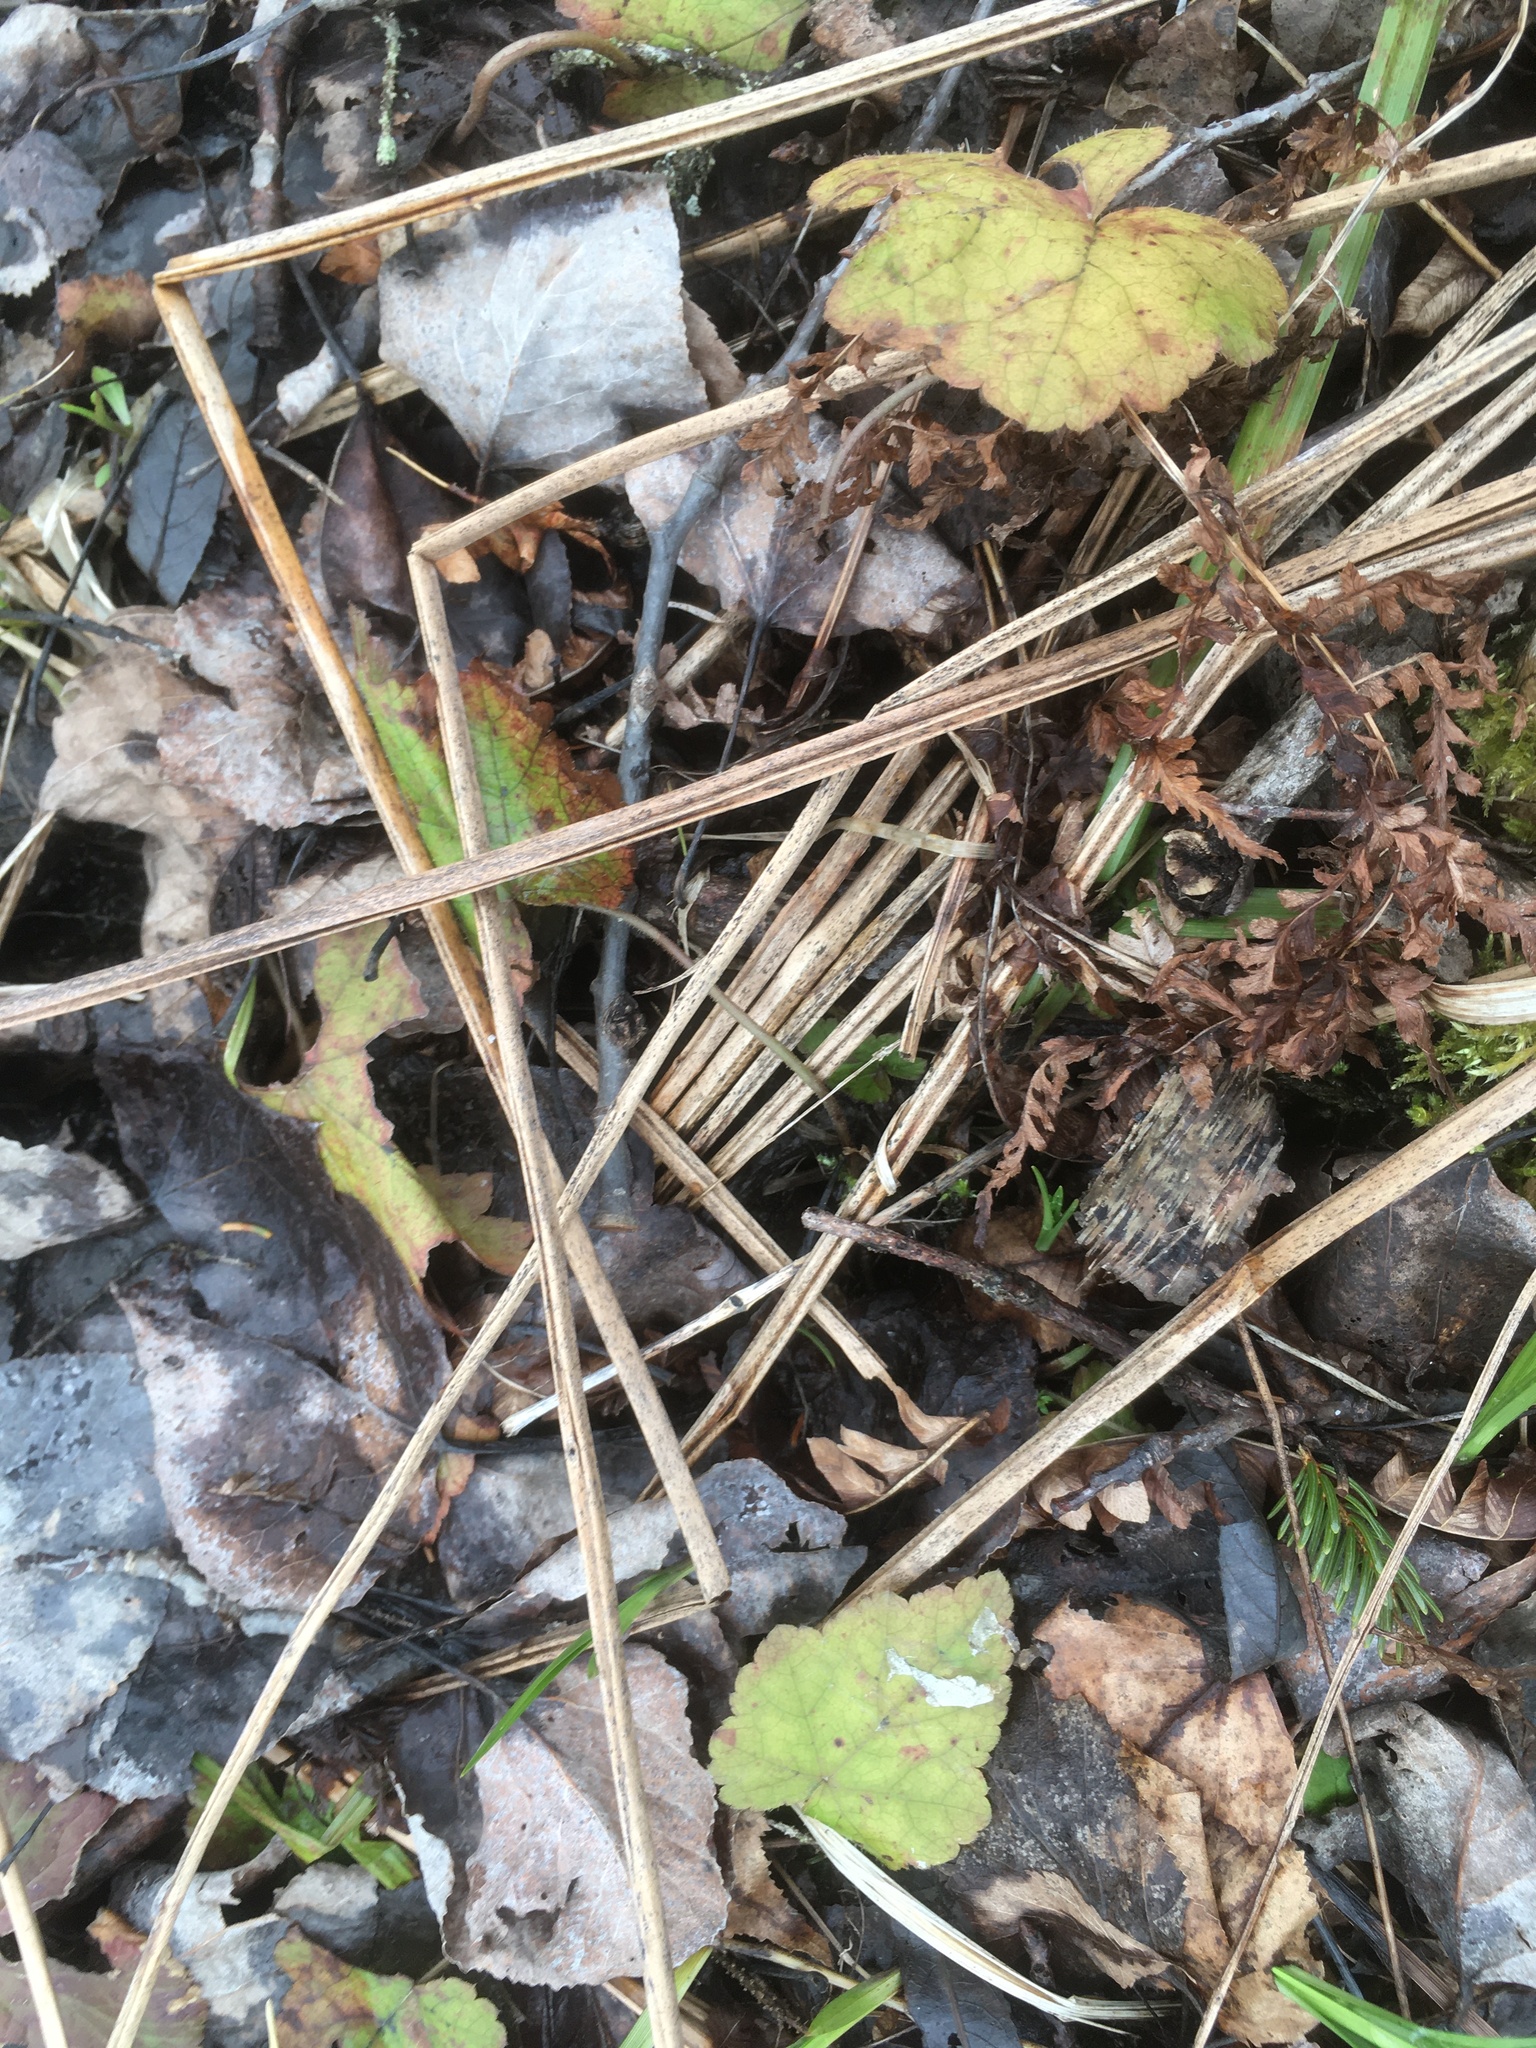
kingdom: Plantae
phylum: Tracheophyta
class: Magnoliopsida
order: Saxifragales
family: Saxifragaceae
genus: Tiarella
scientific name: Tiarella stolonifera
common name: Stoloniferous foamflower
